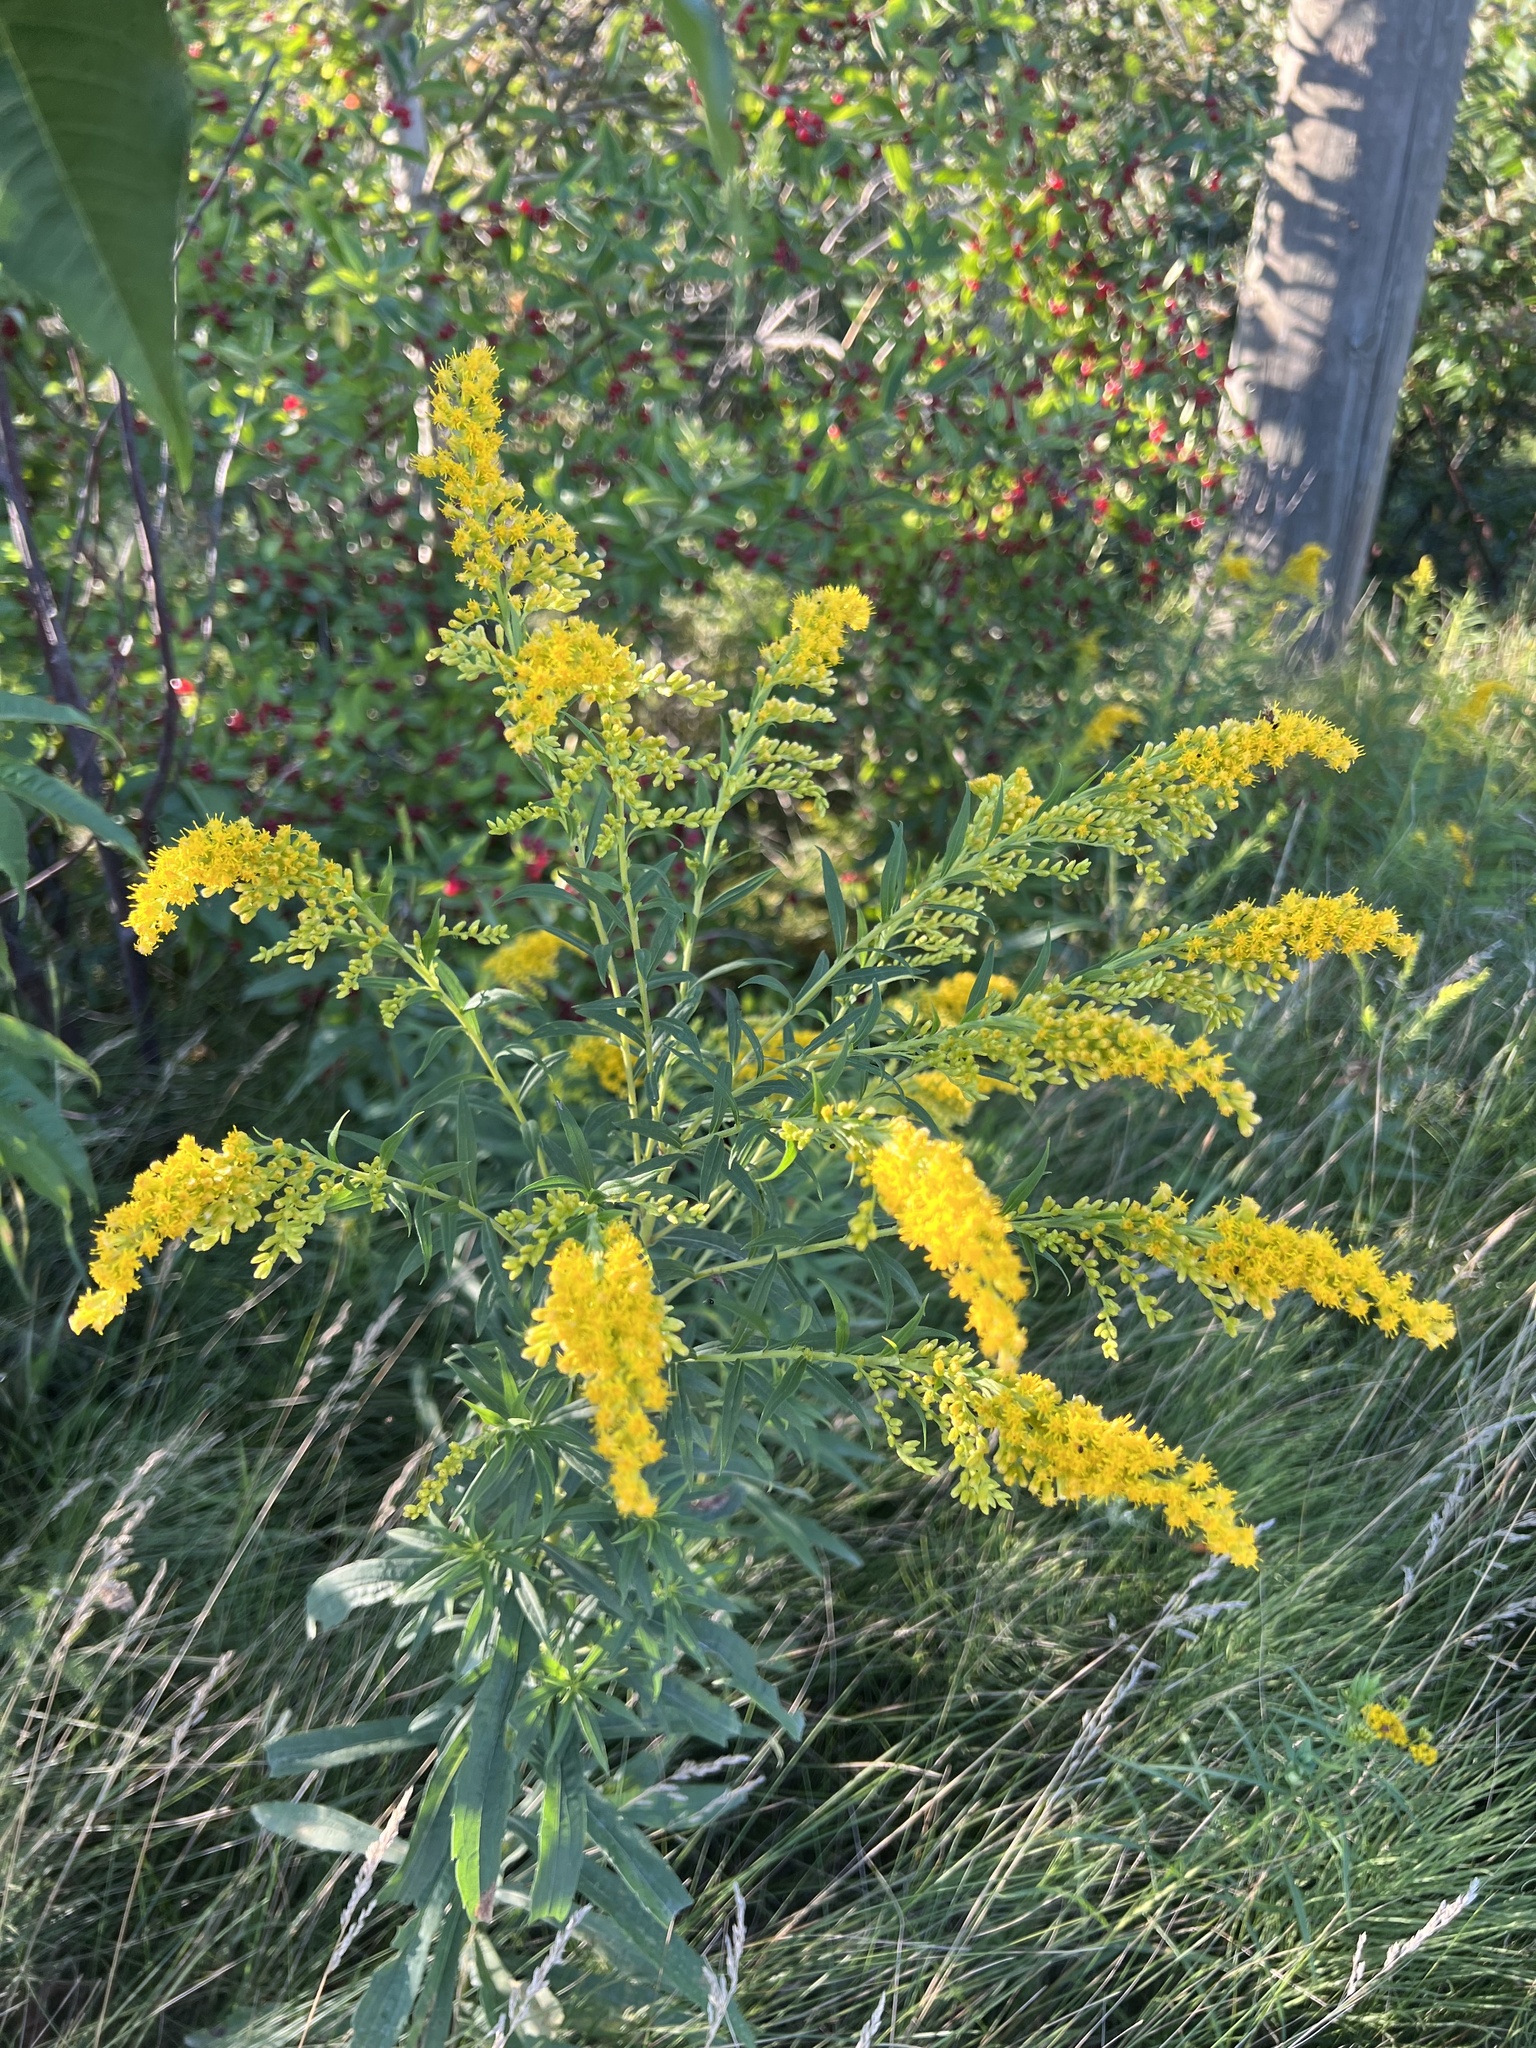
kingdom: Plantae
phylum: Tracheophyta
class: Magnoliopsida
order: Asterales
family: Asteraceae
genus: Solidago
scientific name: Solidago canadensis
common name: Canada goldenrod
